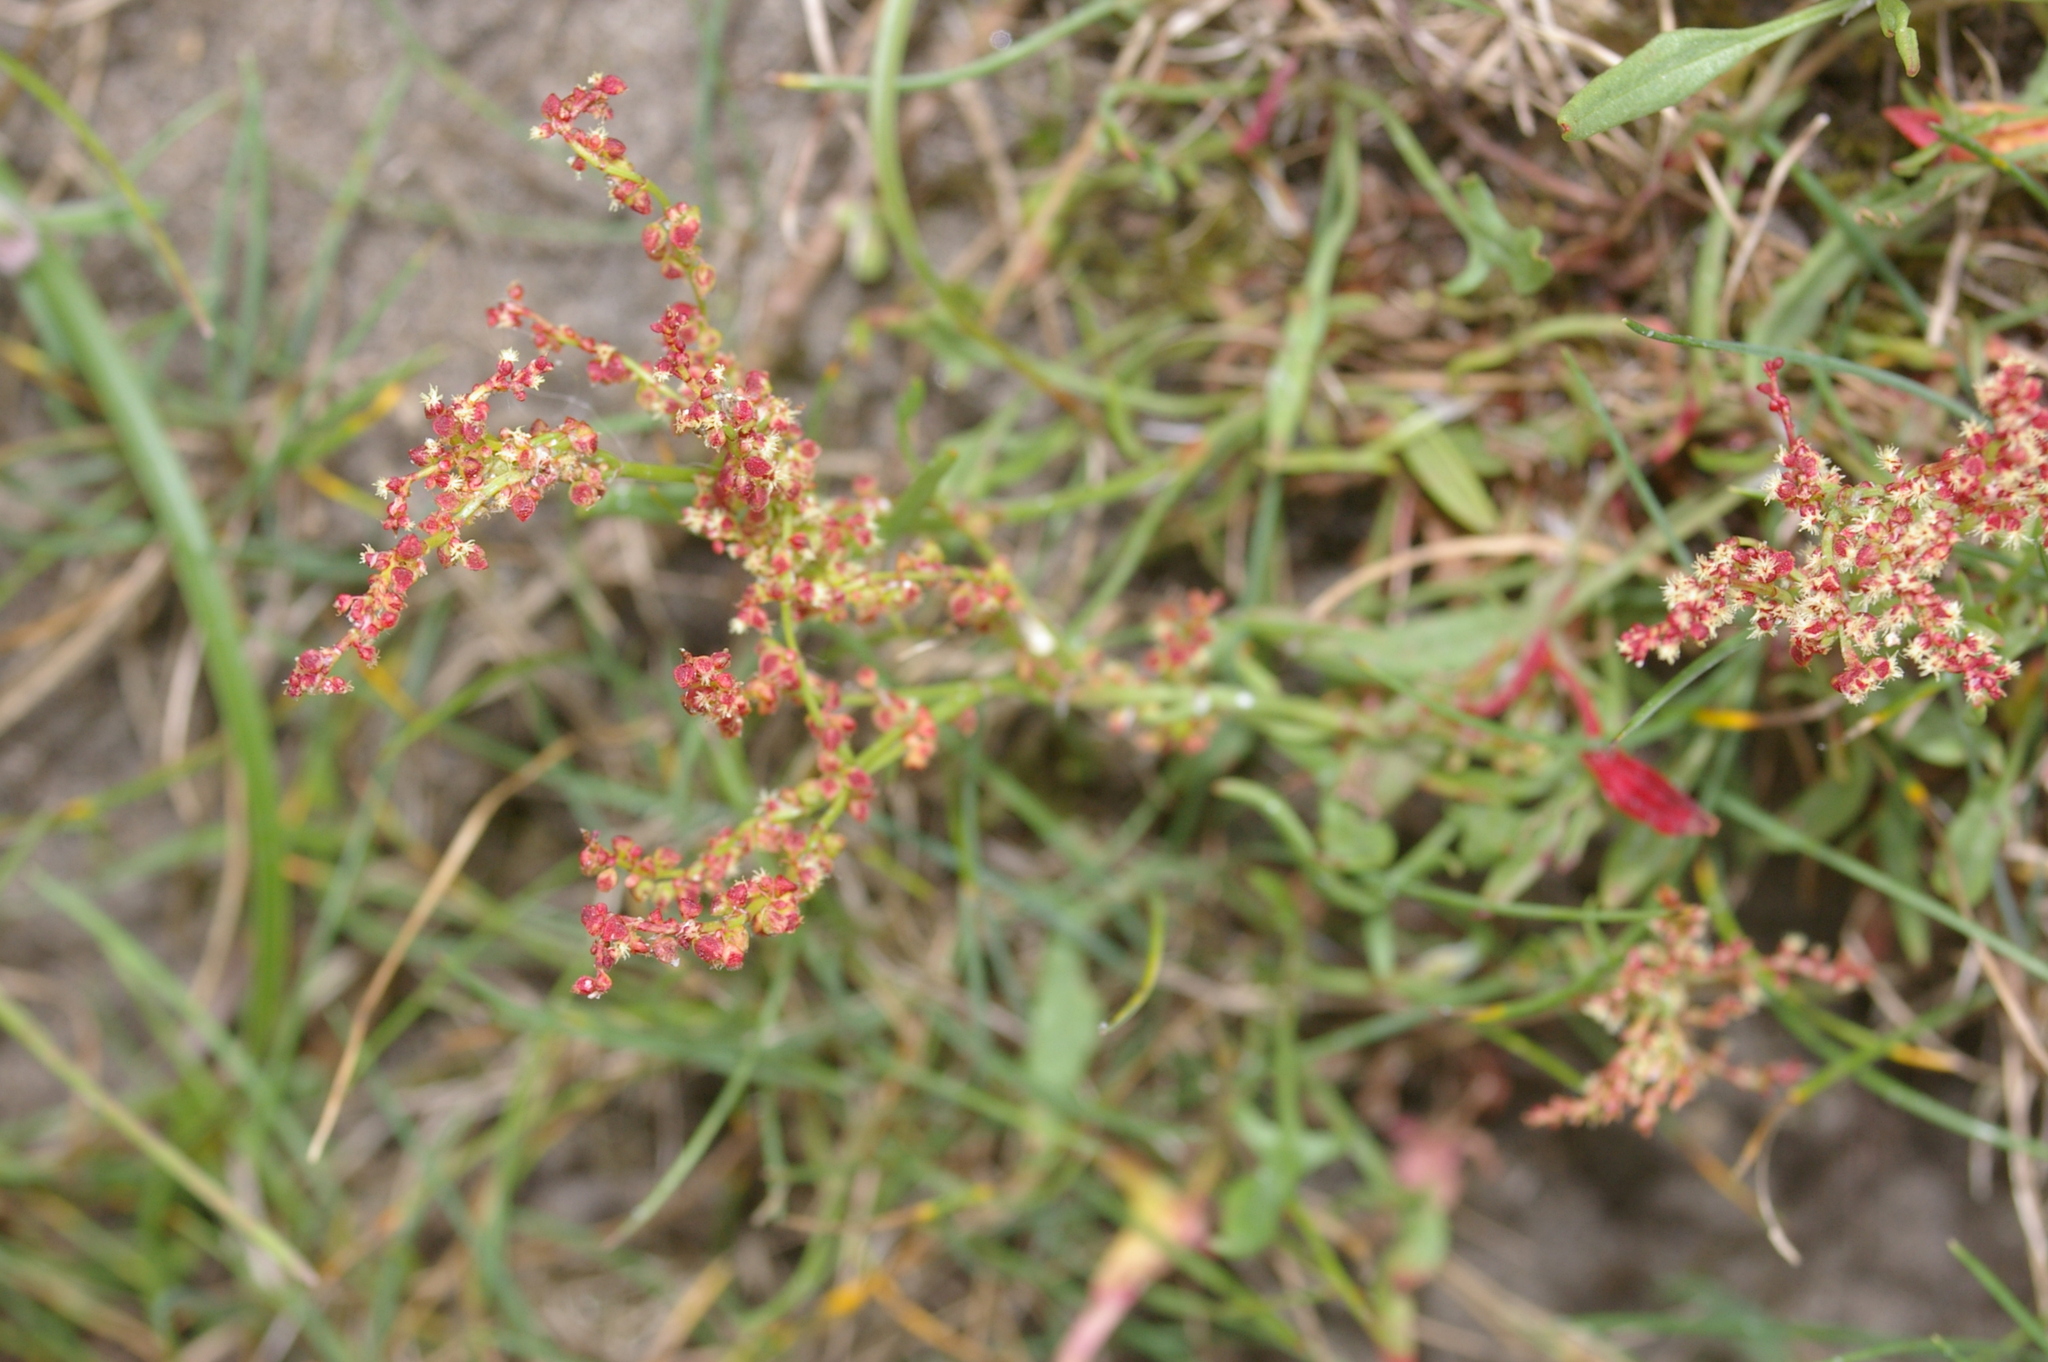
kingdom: Plantae
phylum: Tracheophyta
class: Magnoliopsida
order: Caryophyllales
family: Polygonaceae
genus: Rumex
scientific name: Rumex acetosella
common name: Common sheep sorrel
